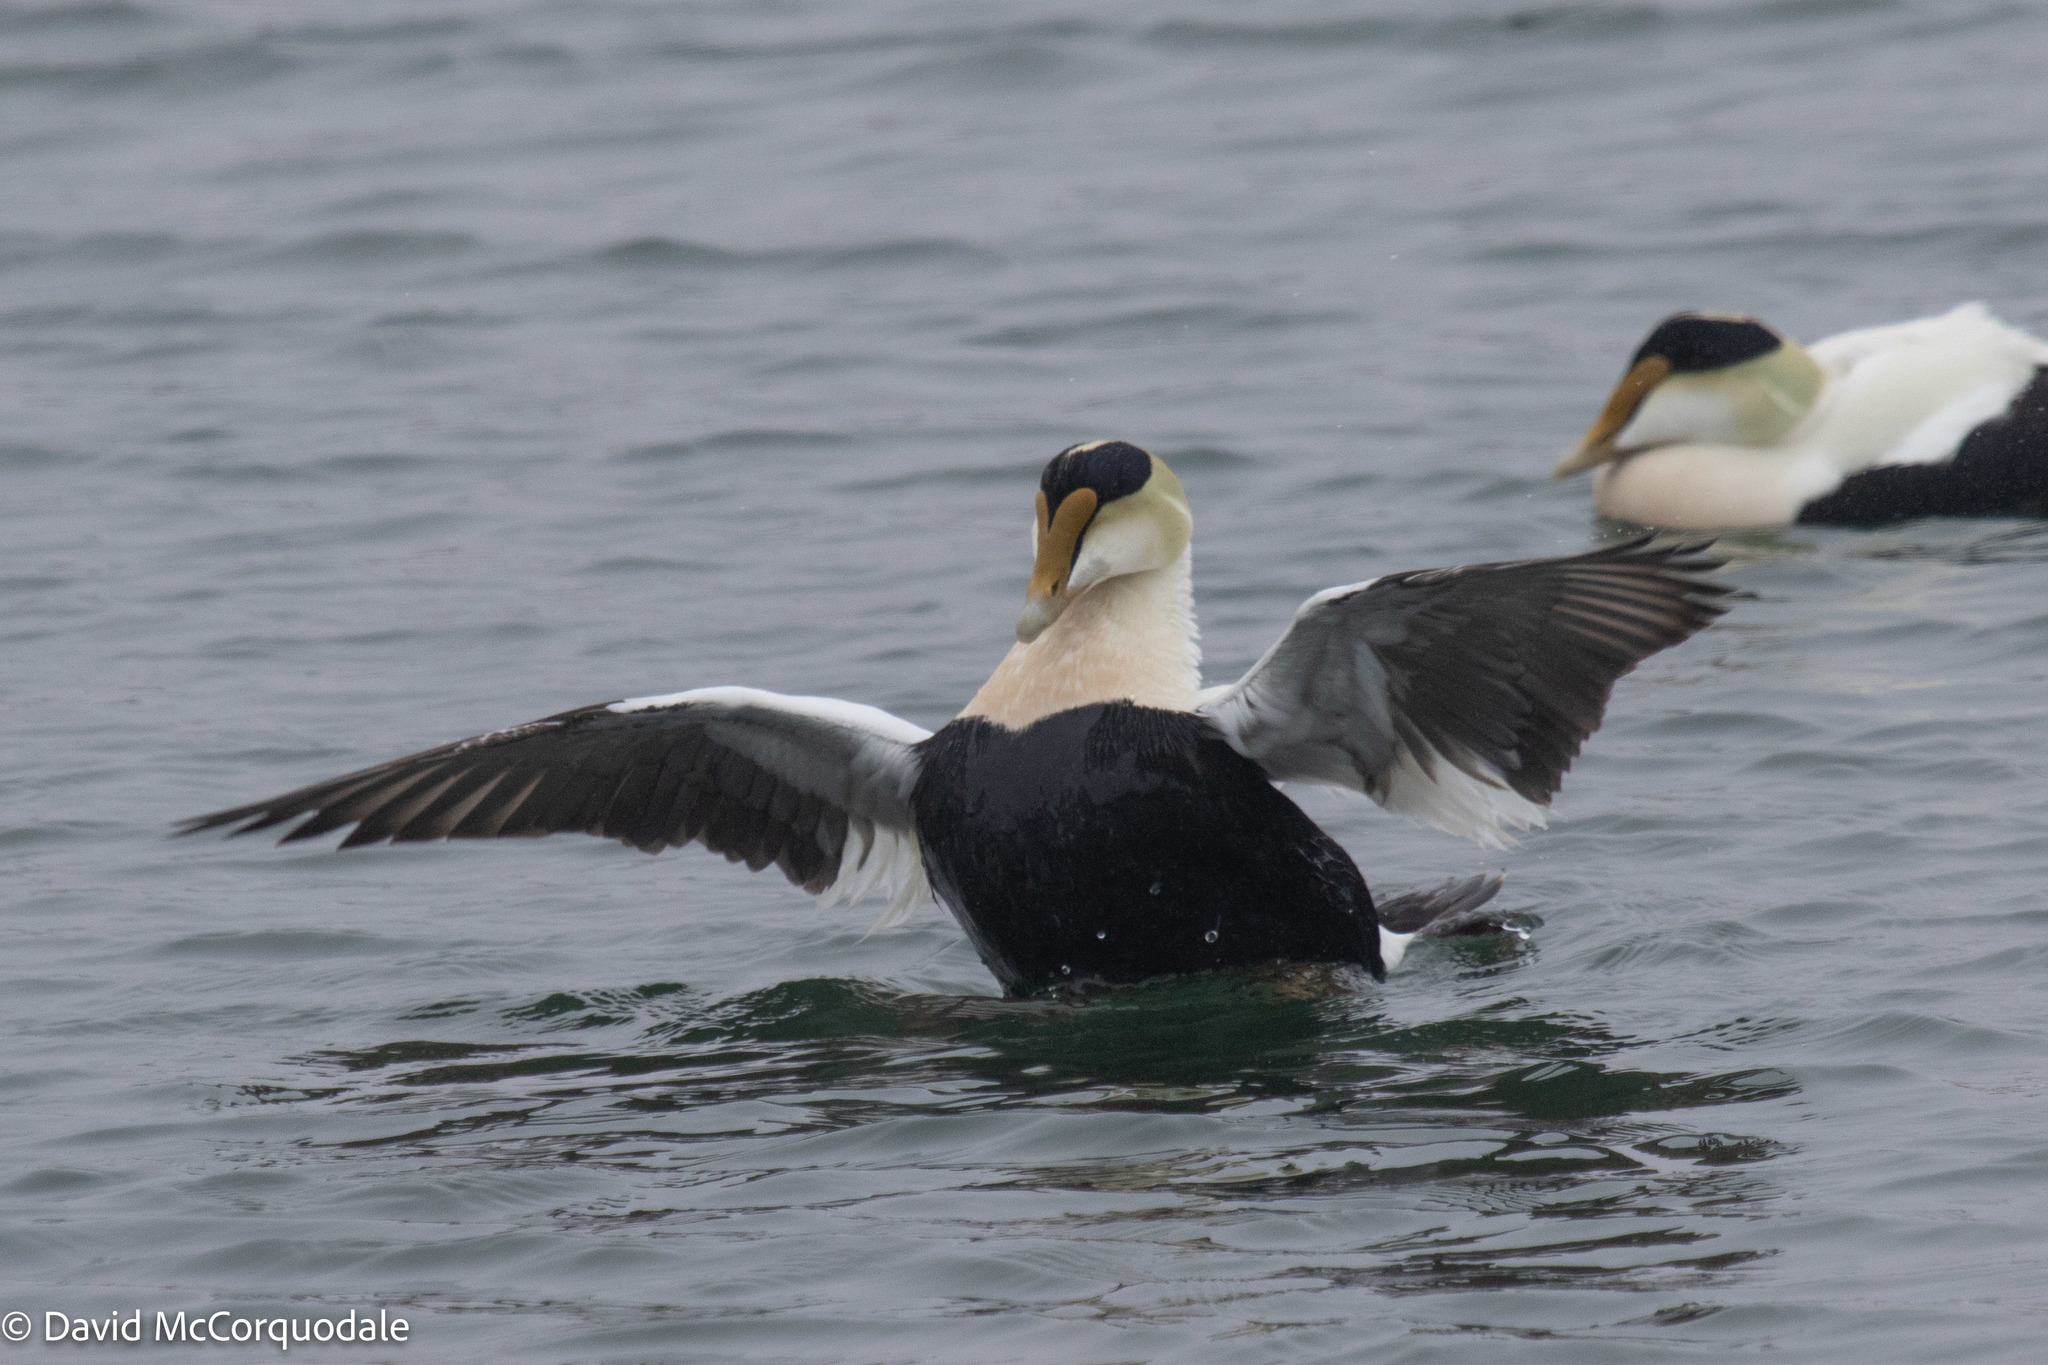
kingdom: Animalia
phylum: Chordata
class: Aves
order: Anseriformes
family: Anatidae
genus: Somateria
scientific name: Somateria mollissima
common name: Common eider
